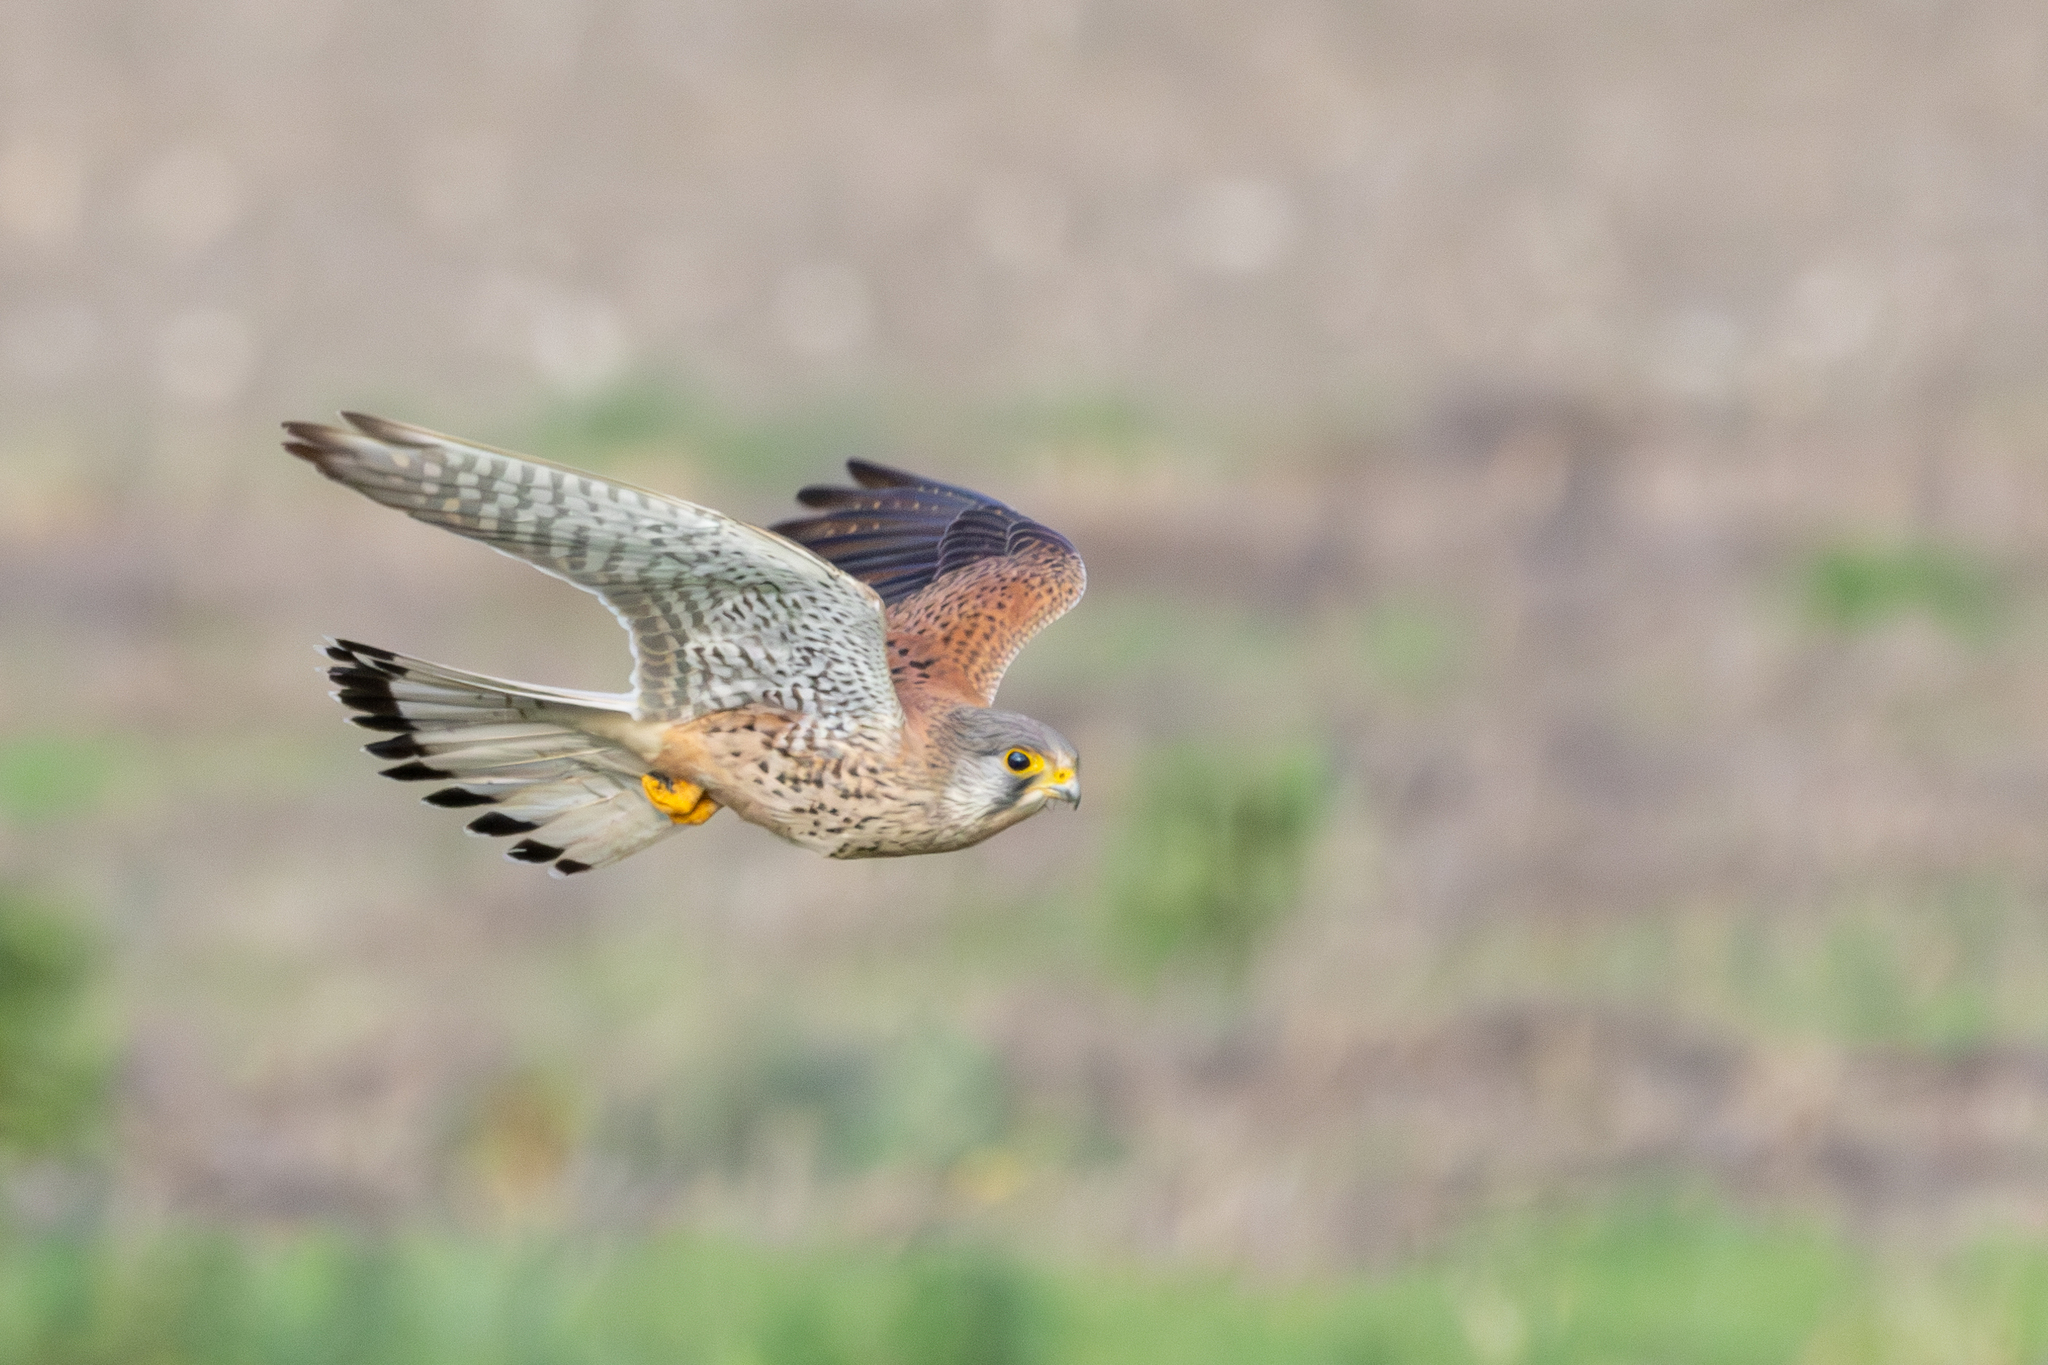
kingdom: Animalia
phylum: Chordata
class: Aves
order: Falconiformes
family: Falconidae
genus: Falco
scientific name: Falco tinnunculus
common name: Common kestrel
